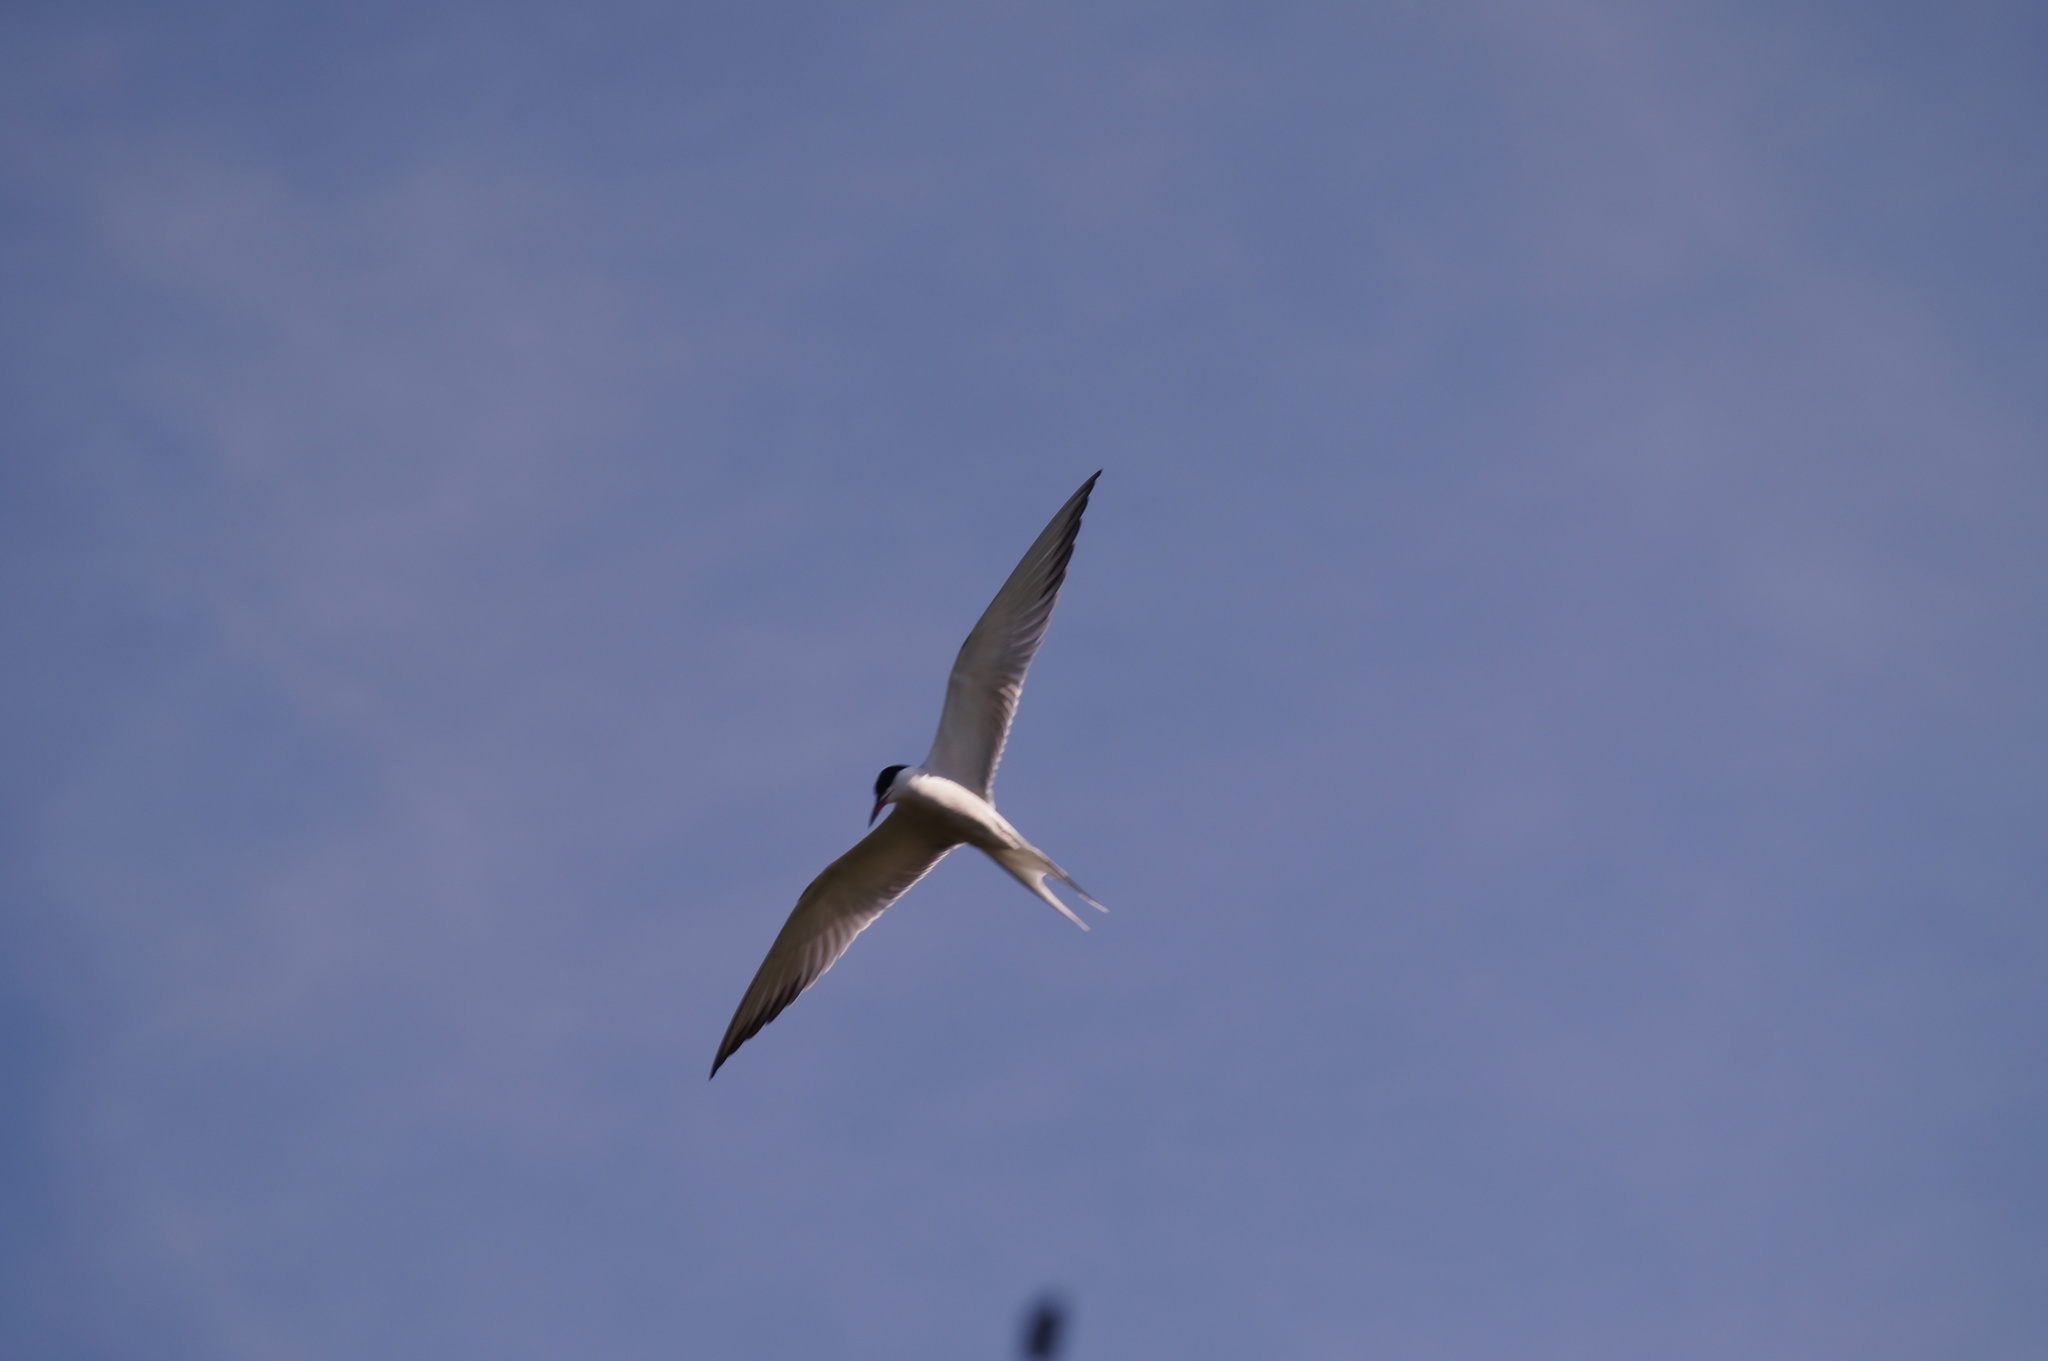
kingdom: Animalia
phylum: Chordata
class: Aves
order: Charadriiformes
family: Laridae
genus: Sterna
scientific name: Sterna hirundo
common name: Common tern
